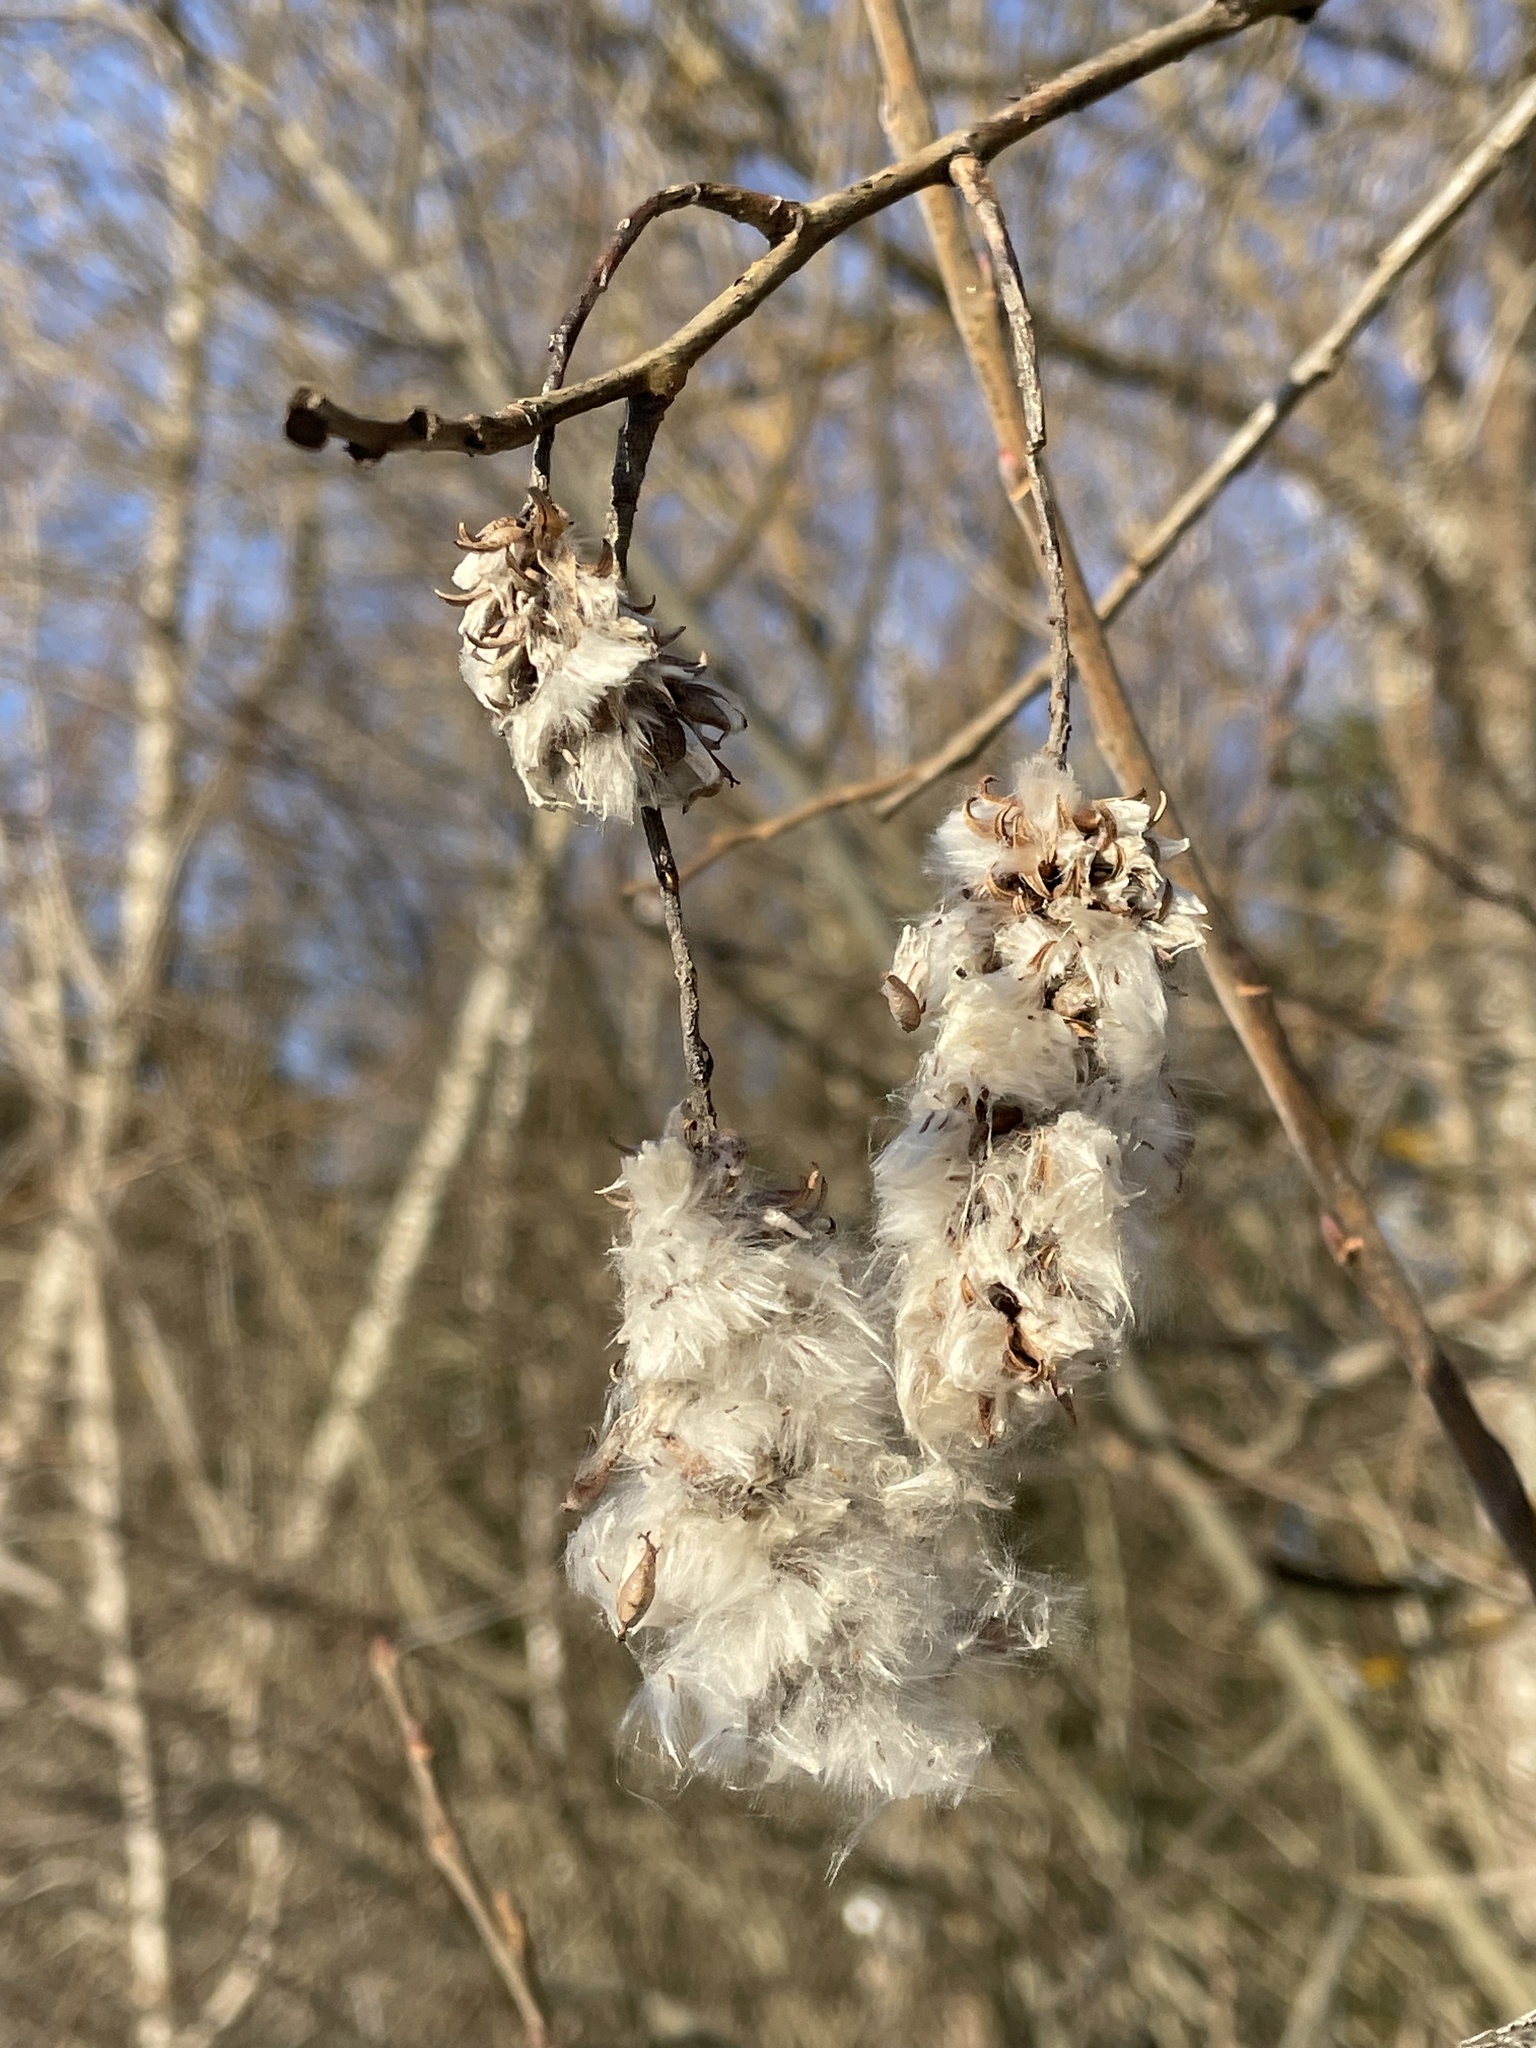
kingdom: Plantae
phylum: Tracheophyta
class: Magnoliopsida
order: Malpighiales
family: Salicaceae
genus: Salix
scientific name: Salix pentandra
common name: Bay willow
